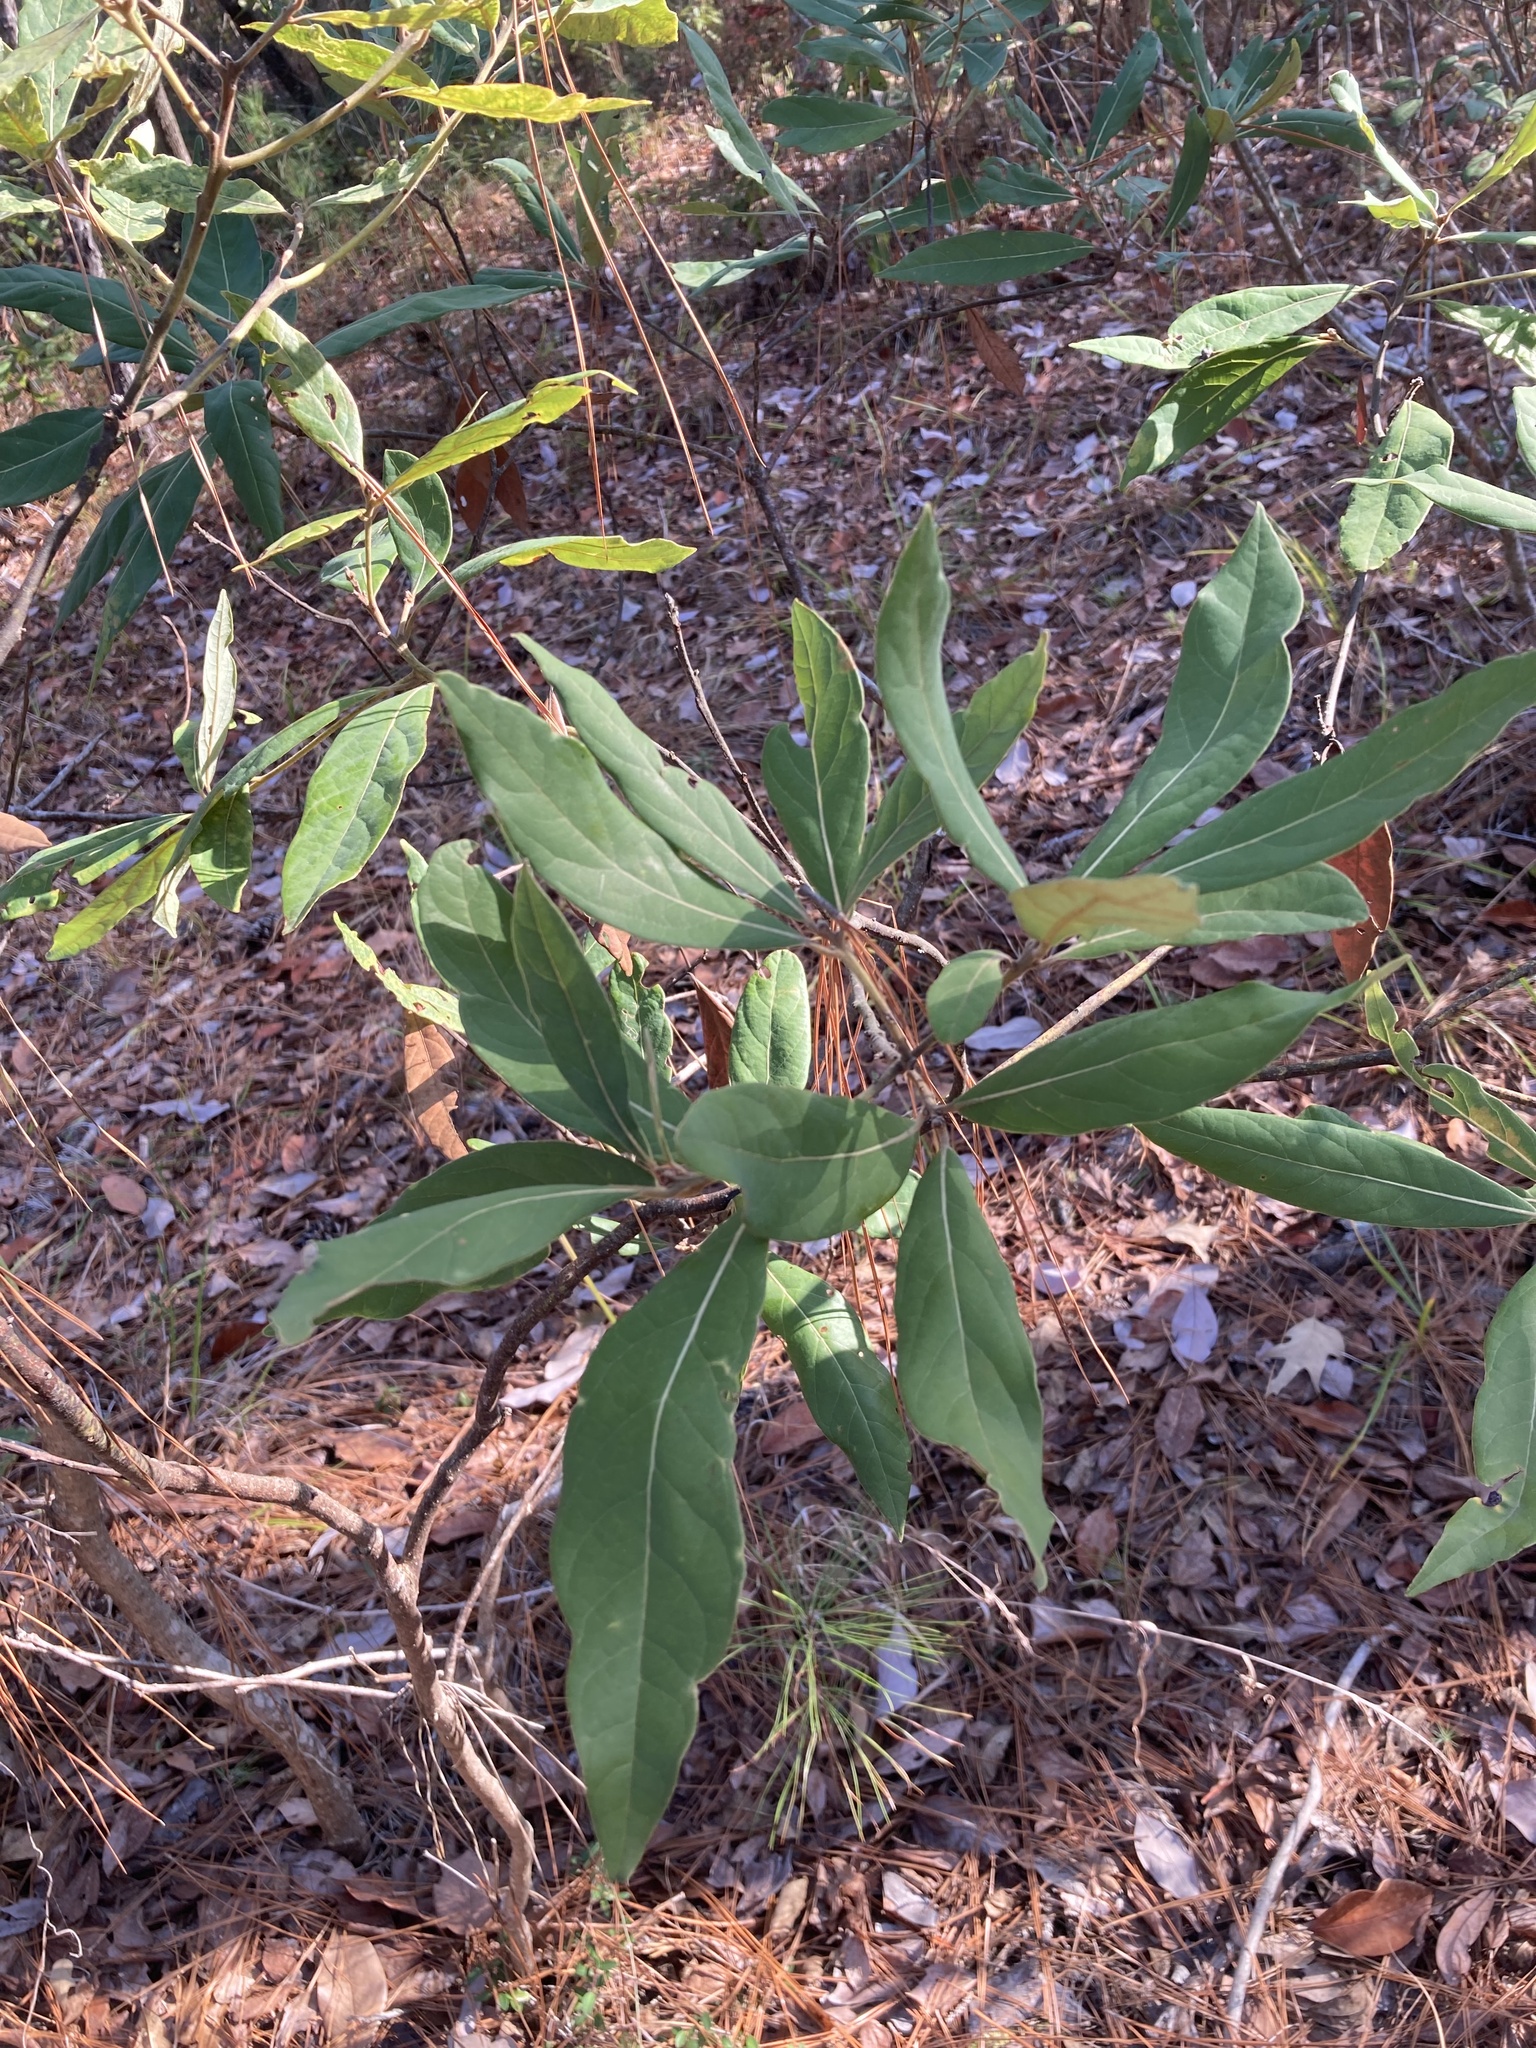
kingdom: Plantae
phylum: Tracheophyta
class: Magnoliopsida
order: Laurales
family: Lauraceae
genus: Persea
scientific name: Persea palustris
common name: Swampbay
